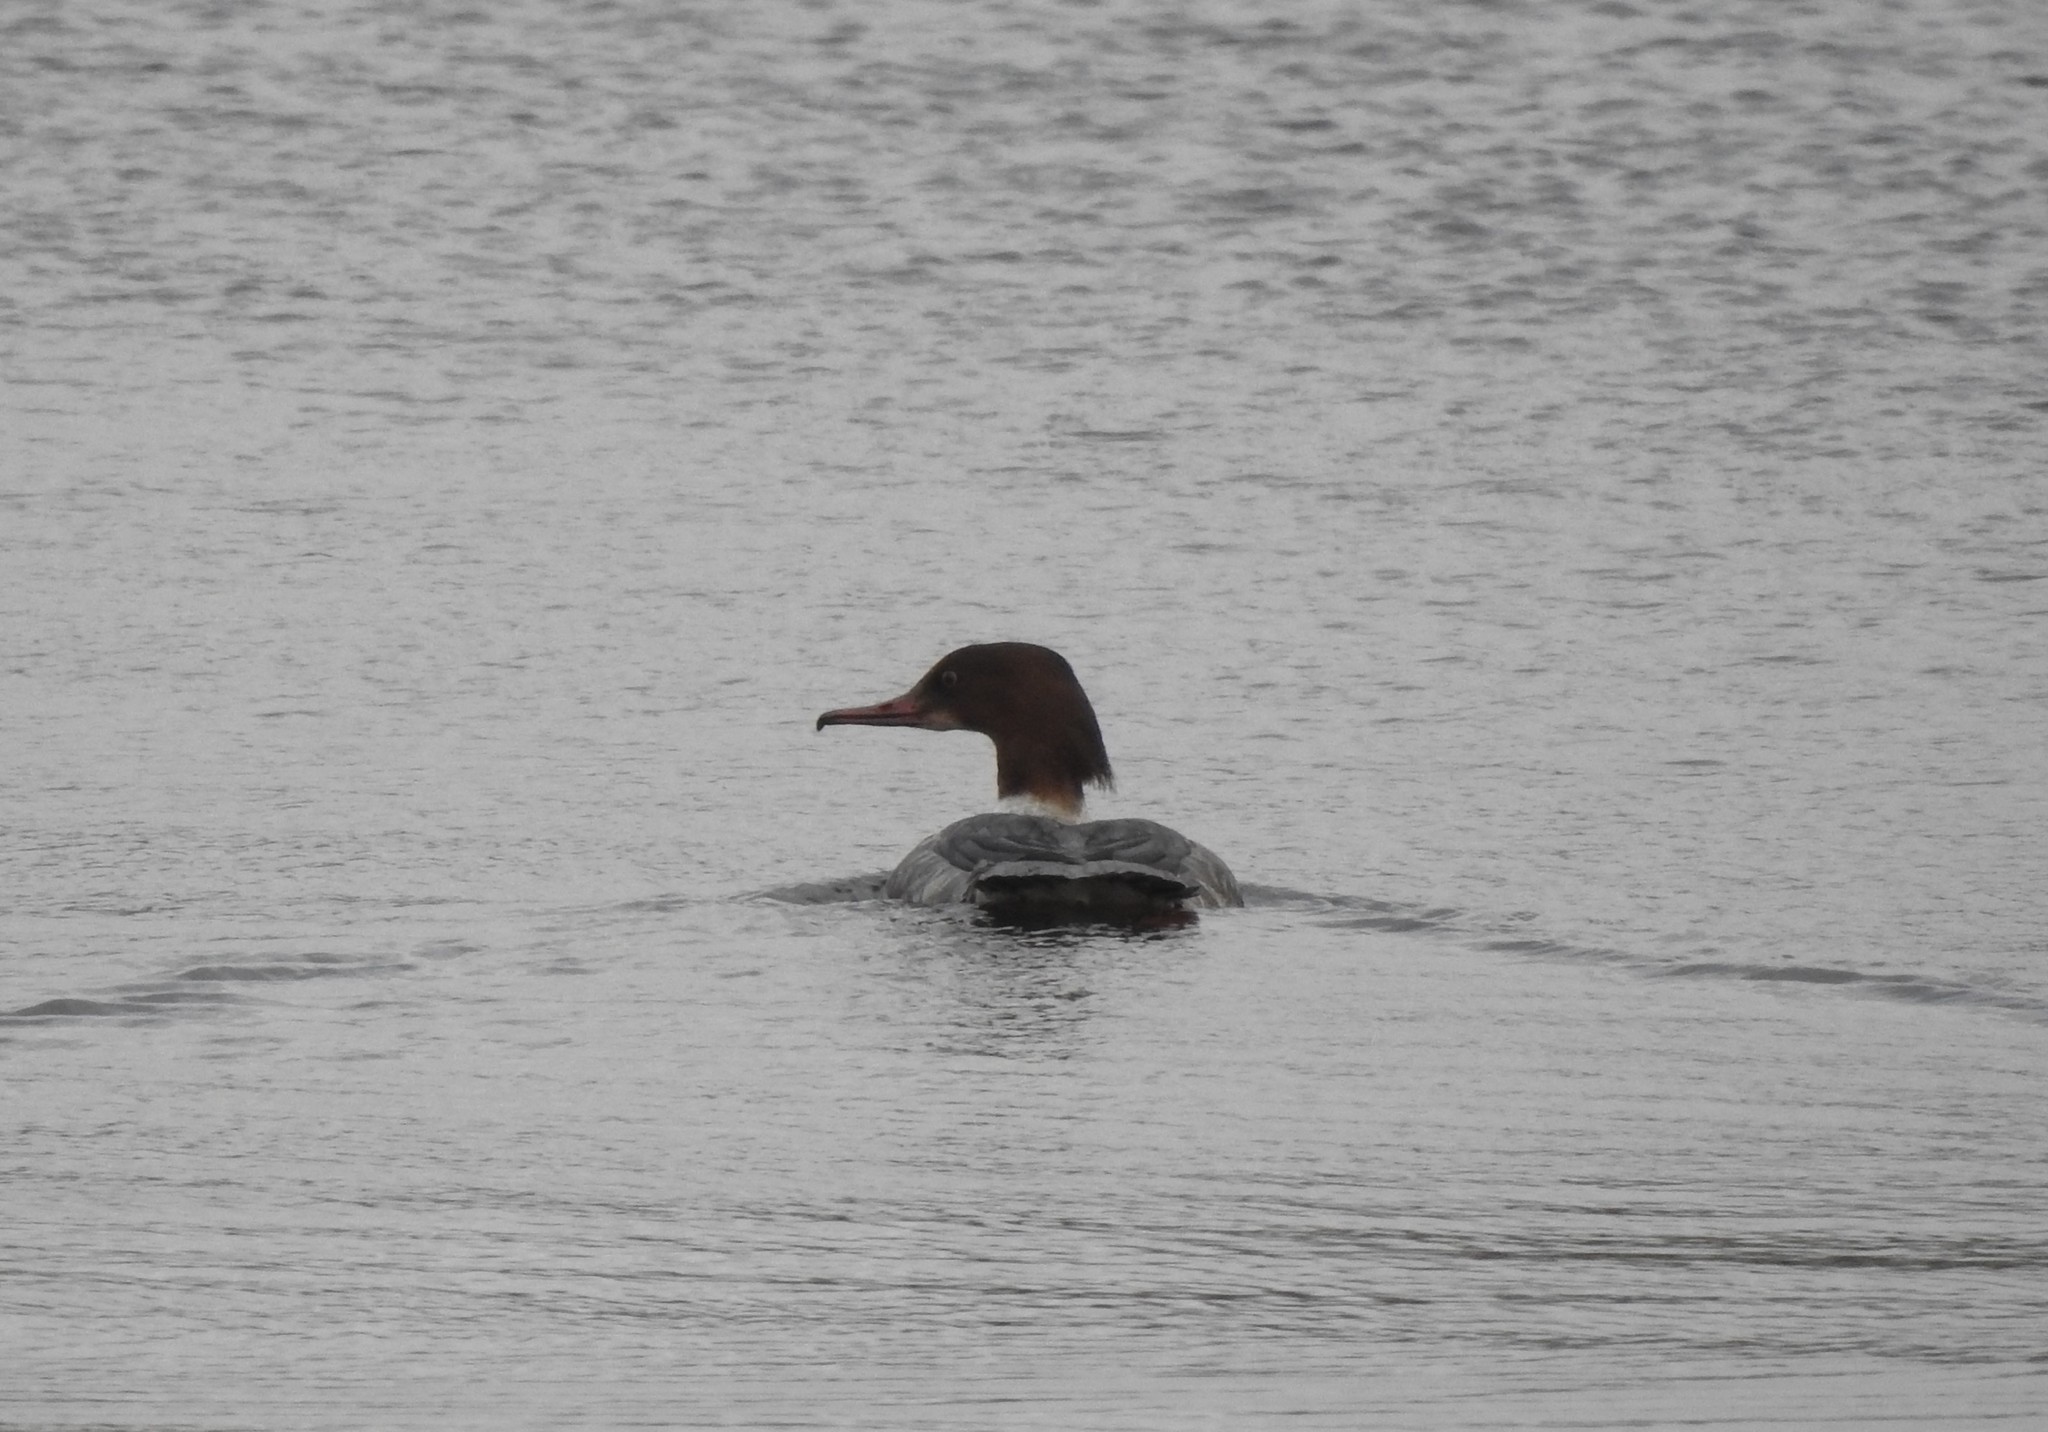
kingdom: Animalia
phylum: Chordata
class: Aves
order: Anseriformes
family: Anatidae
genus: Mergus
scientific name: Mergus merganser
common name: Common merganser
